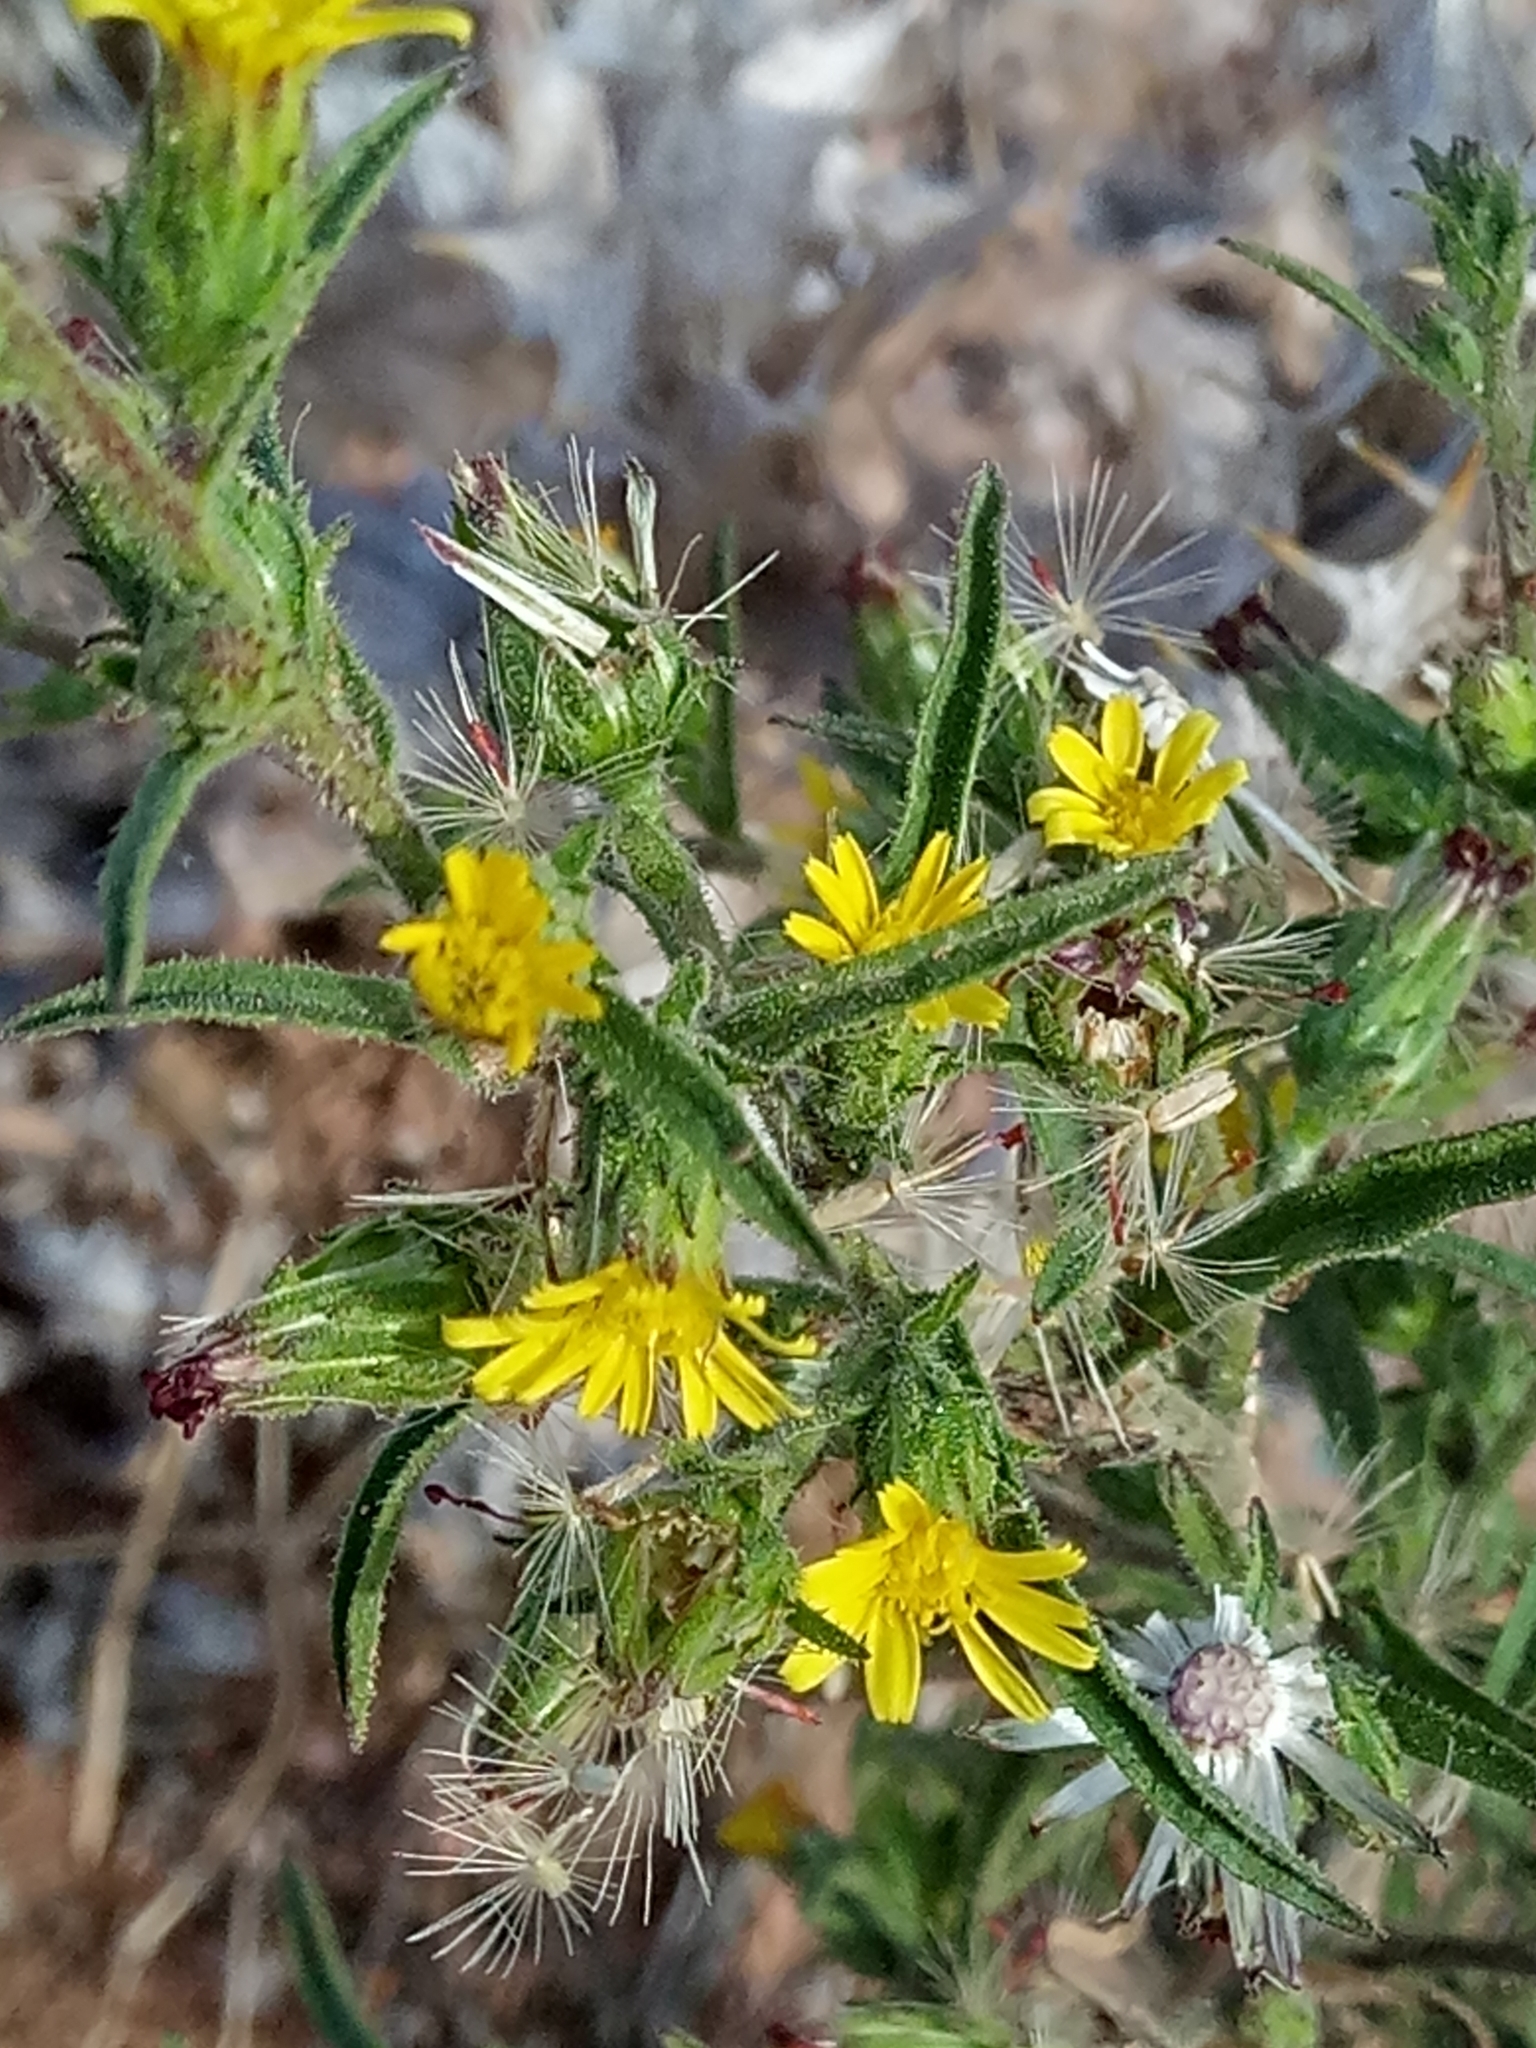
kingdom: Plantae
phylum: Tracheophyta
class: Magnoliopsida
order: Asterales
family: Asteraceae
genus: Dittrichia
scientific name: Dittrichia graveolens
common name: Stinking fleabane
